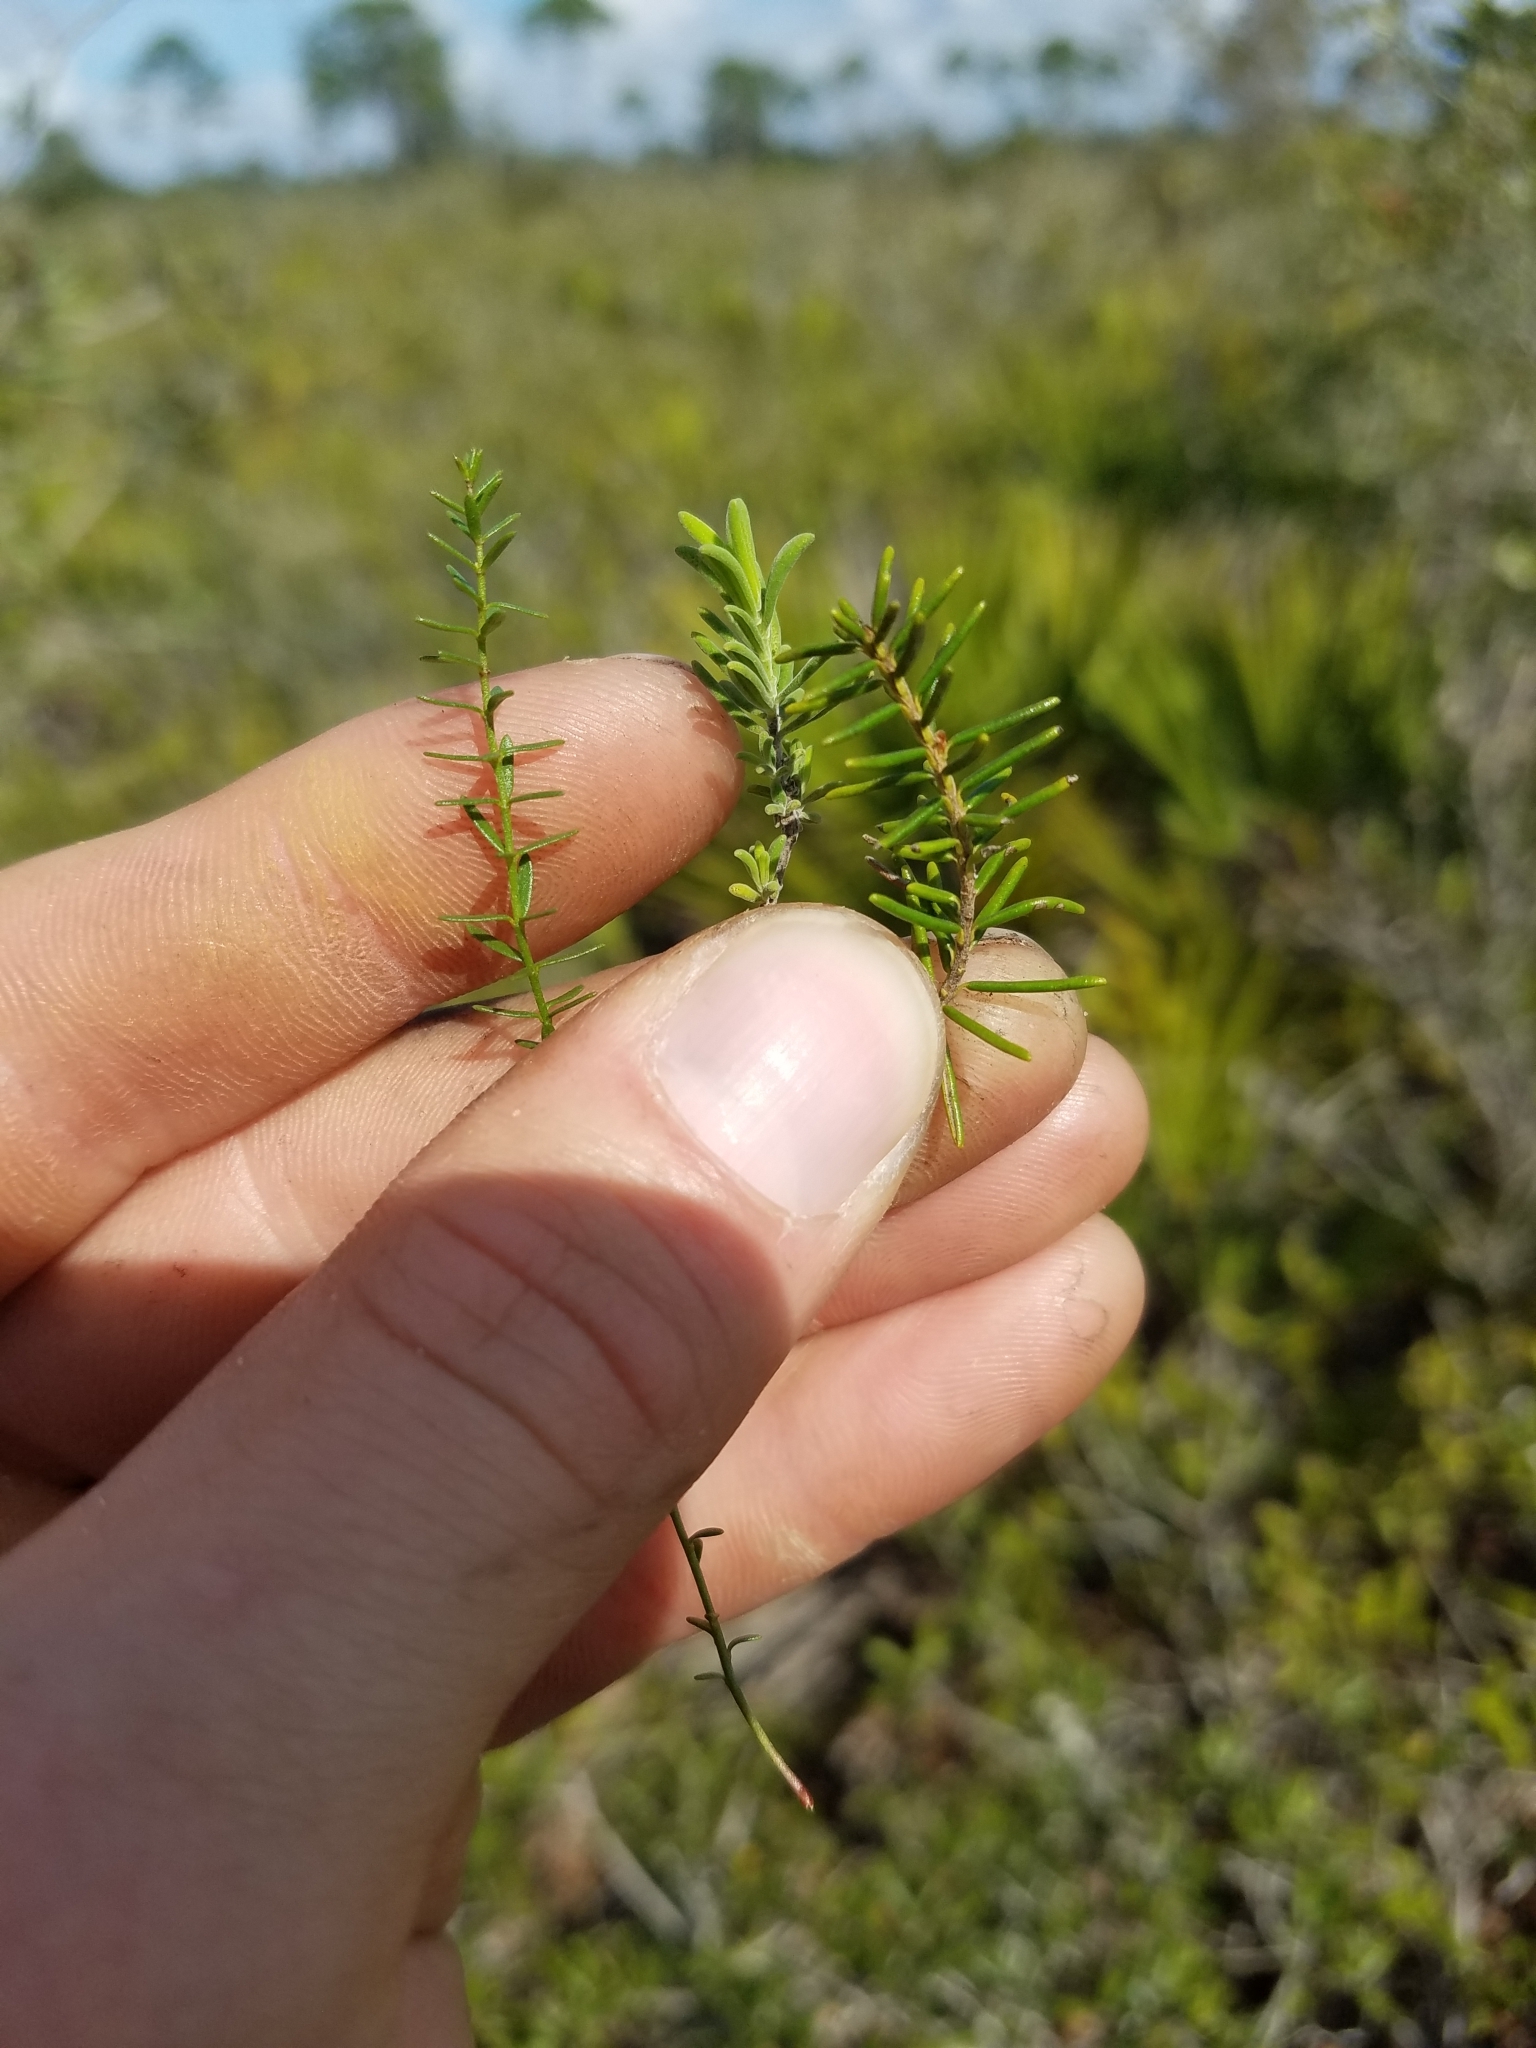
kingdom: Plantae
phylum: Tracheophyta
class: Magnoliopsida
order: Ericales
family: Ericaceae
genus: Ceratiola
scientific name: Ceratiola ericoides
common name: Sandhill-rosemary
